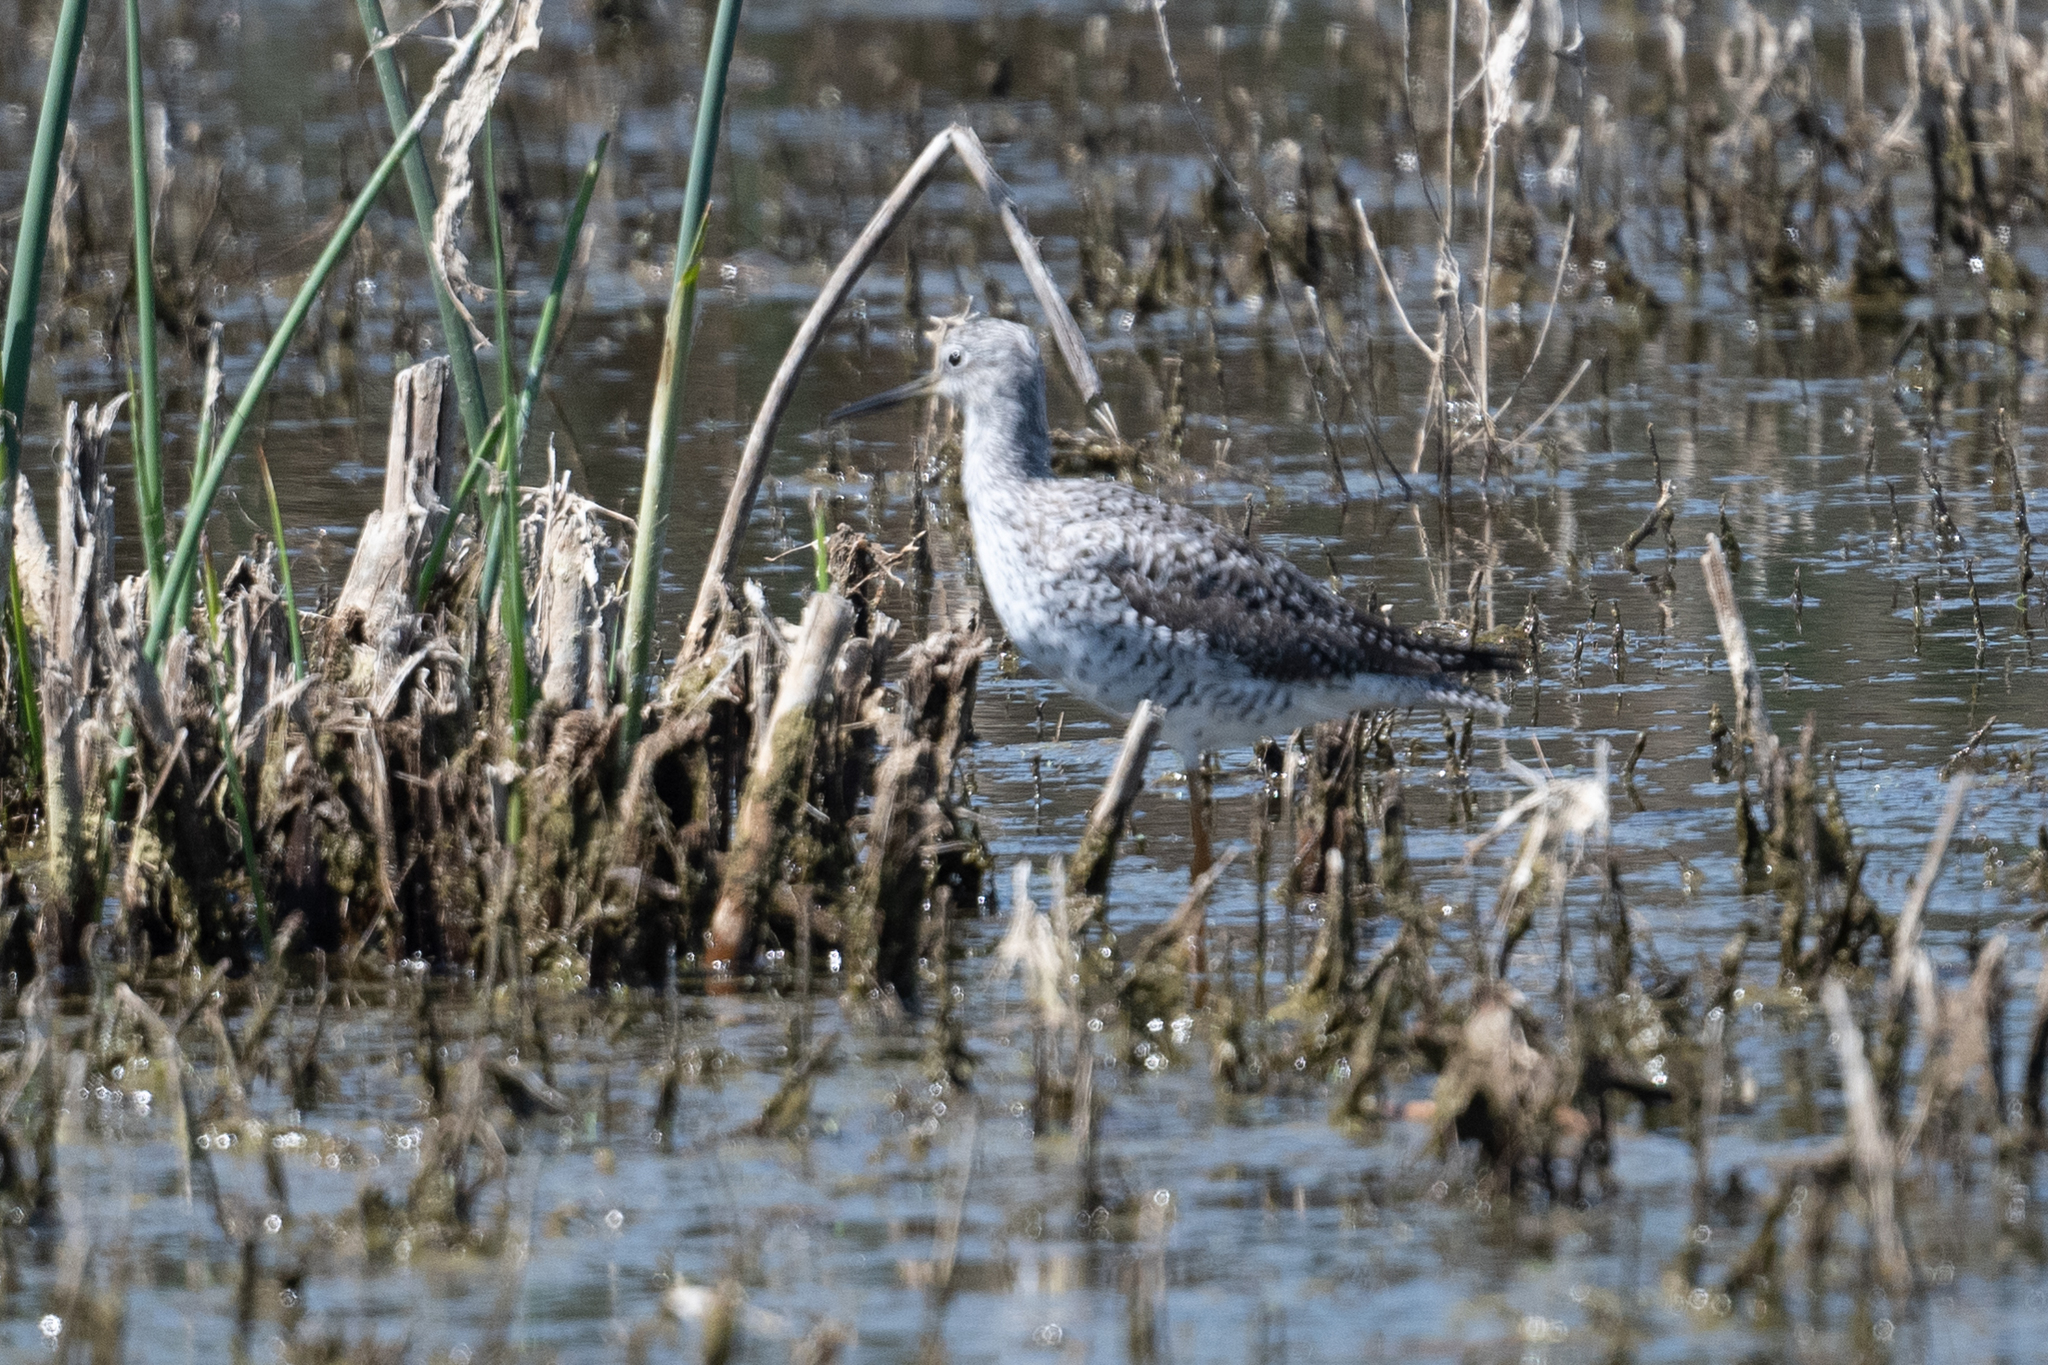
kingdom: Animalia
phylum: Chordata
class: Aves
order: Charadriiformes
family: Scolopacidae
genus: Tringa
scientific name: Tringa melanoleuca
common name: Greater yellowlegs
